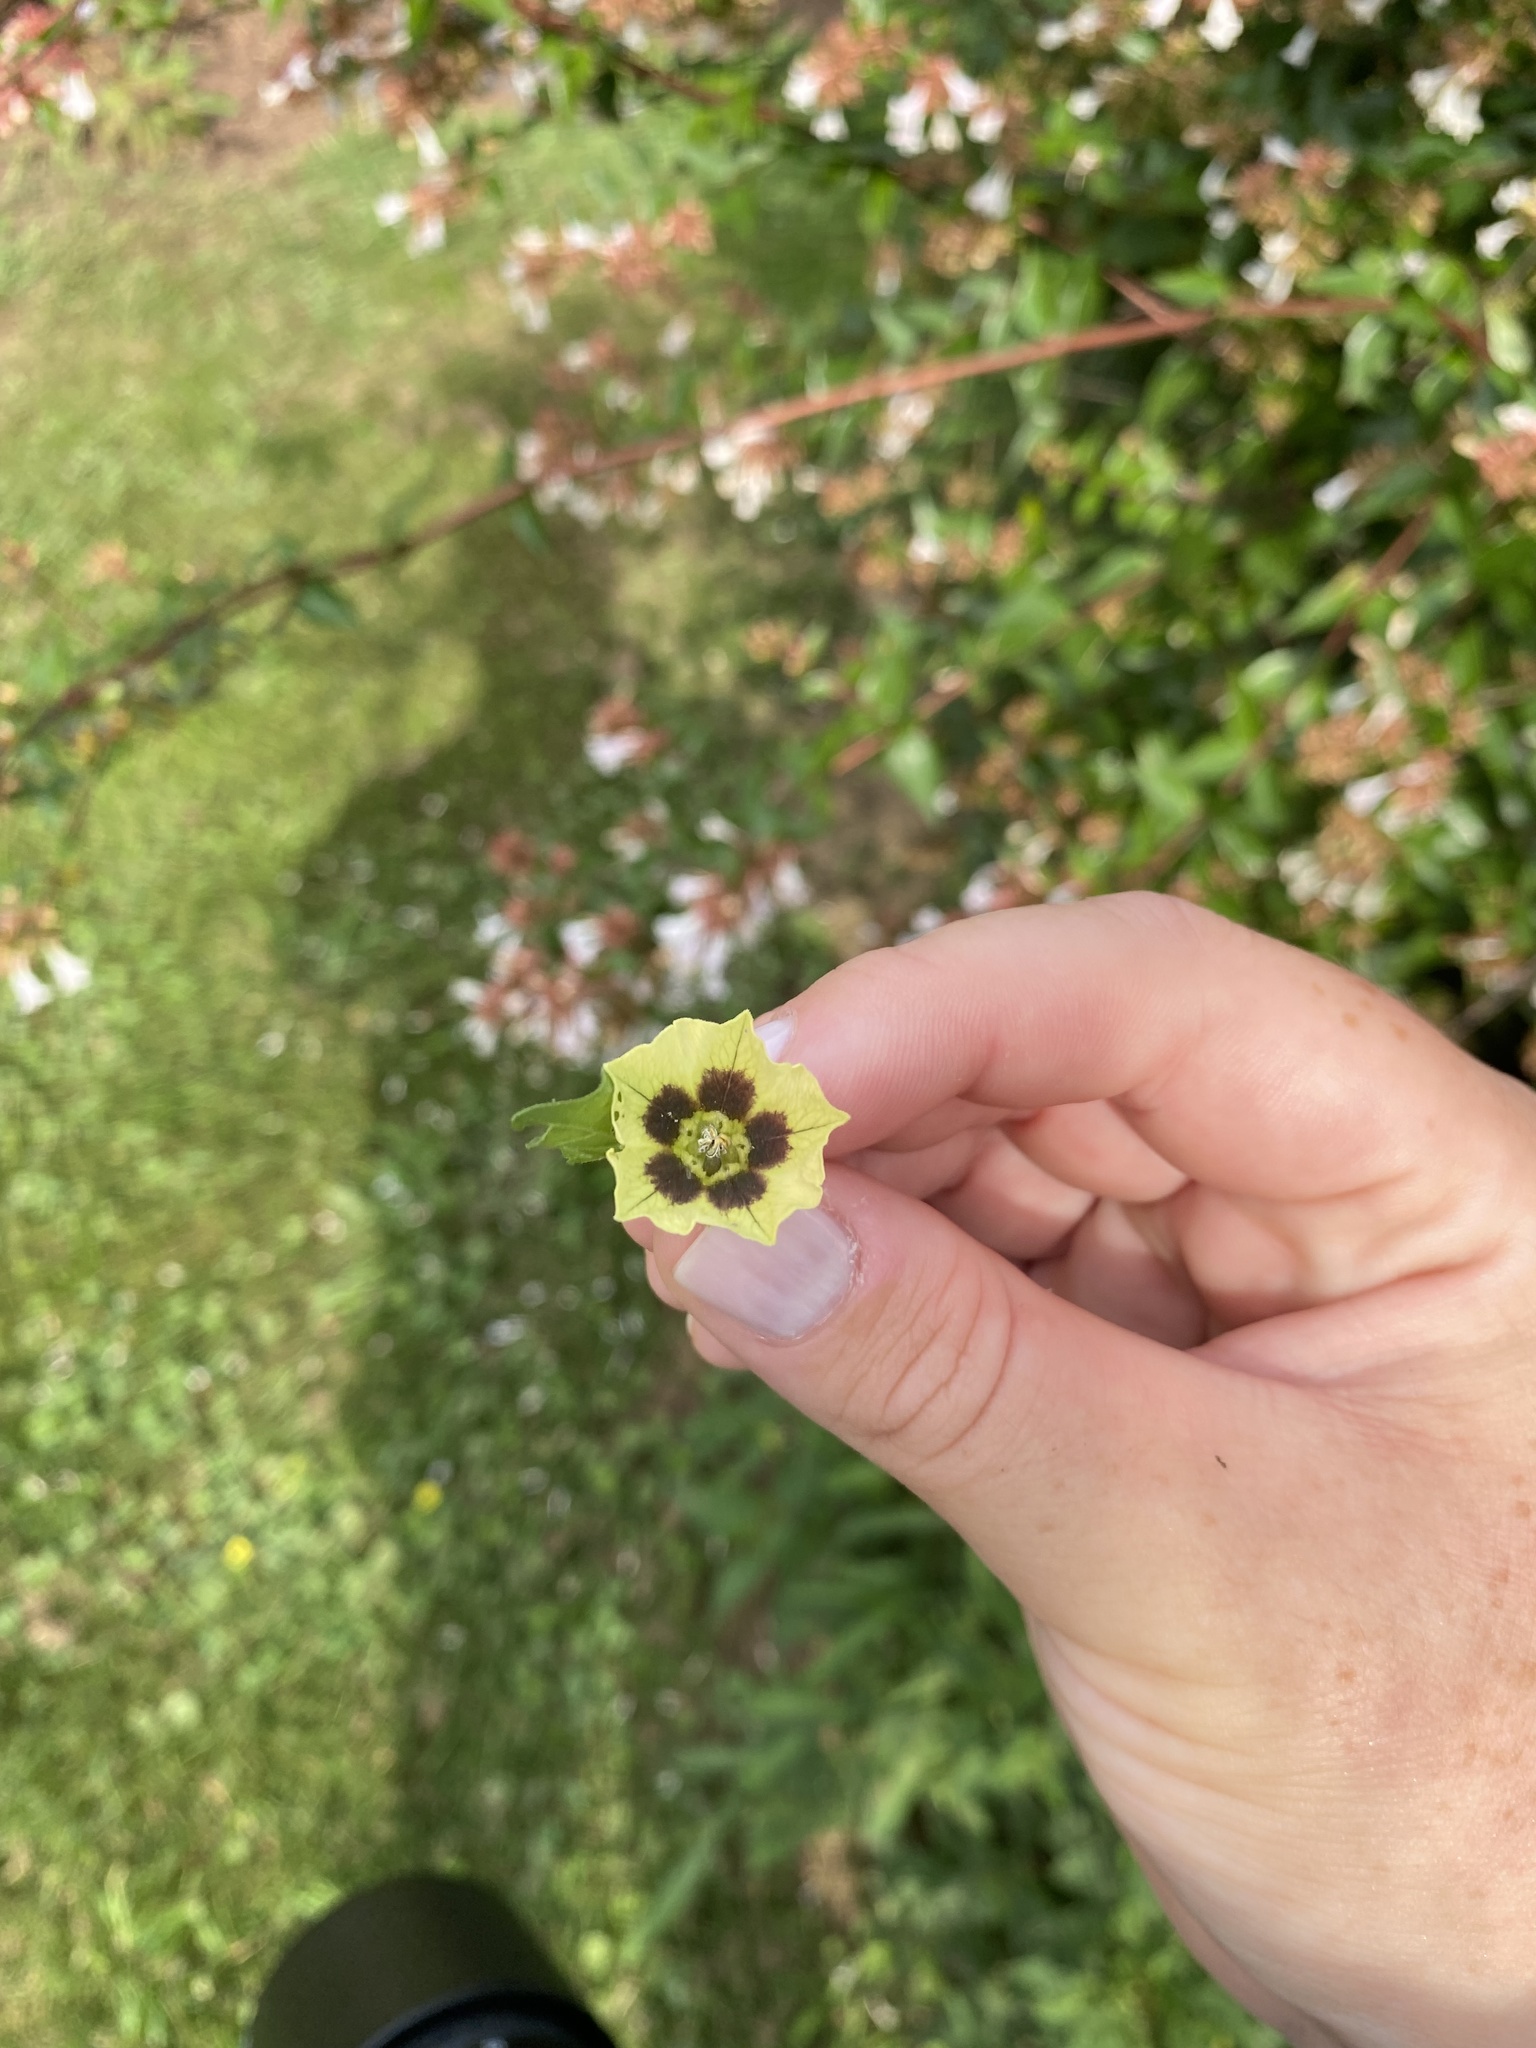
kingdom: Plantae
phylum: Tracheophyta
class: Magnoliopsida
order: Solanales
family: Solanaceae
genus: Physalis
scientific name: Physalis longifolia
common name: Common ground-cherry
